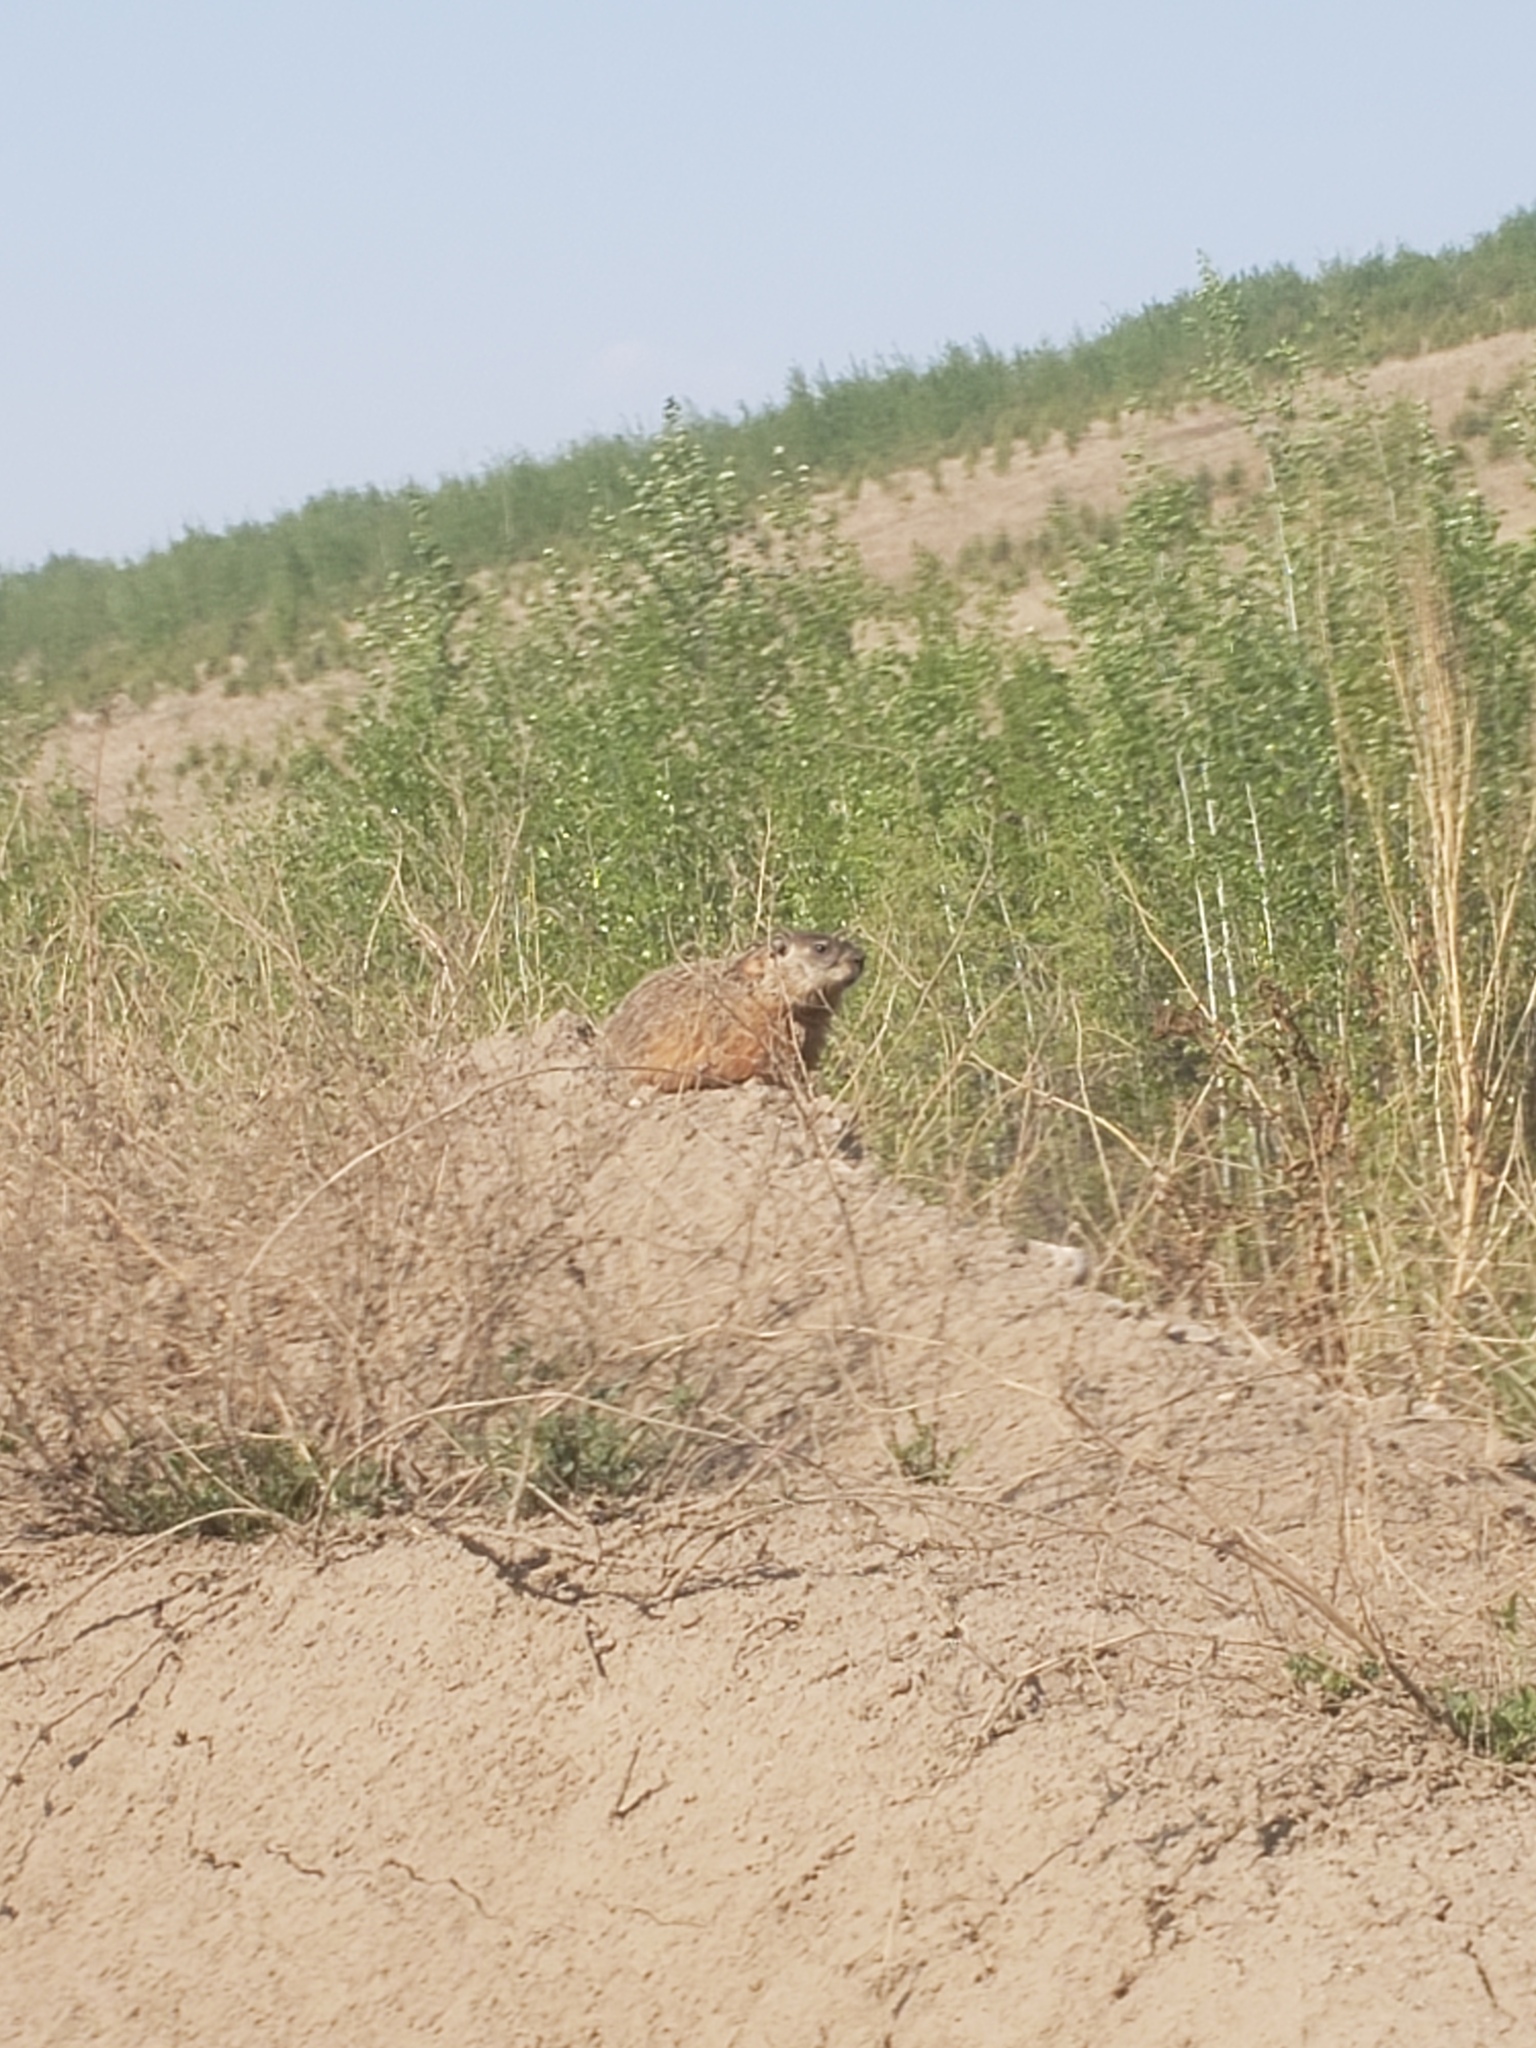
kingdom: Animalia
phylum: Chordata
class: Mammalia
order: Rodentia
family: Sciuridae
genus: Marmota
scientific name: Marmota monax
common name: Groundhog
